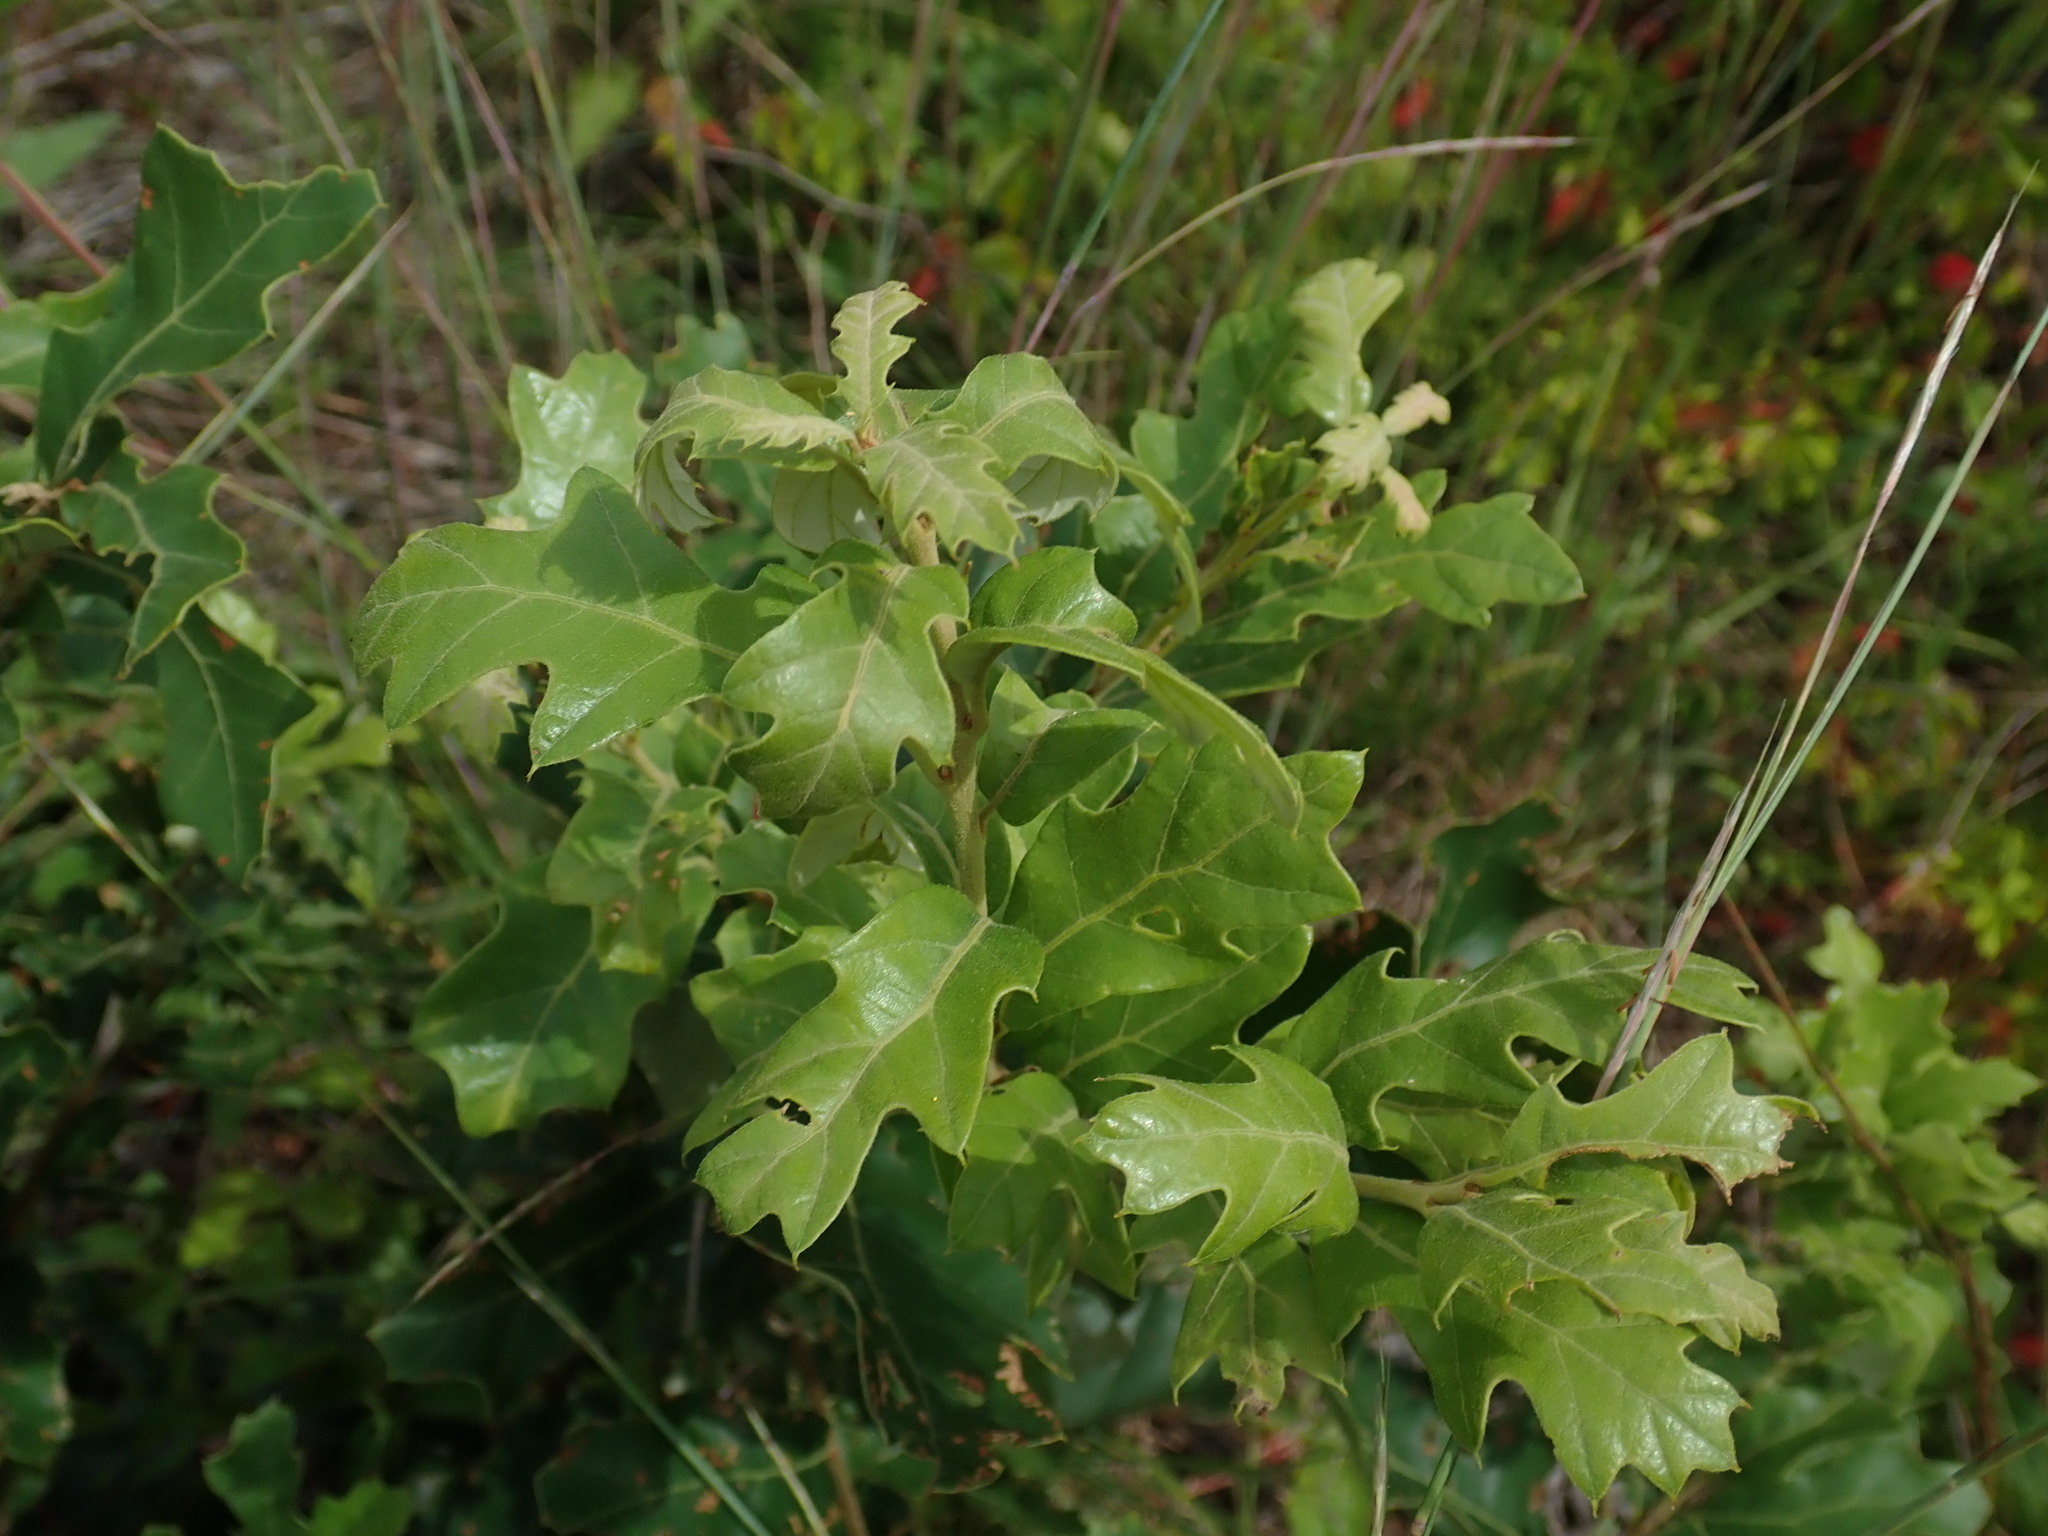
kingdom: Plantae
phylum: Tracheophyta
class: Magnoliopsida
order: Fagales
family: Fagaceae
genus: Quercus
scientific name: Quercus ilicifolia
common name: Bear oak
